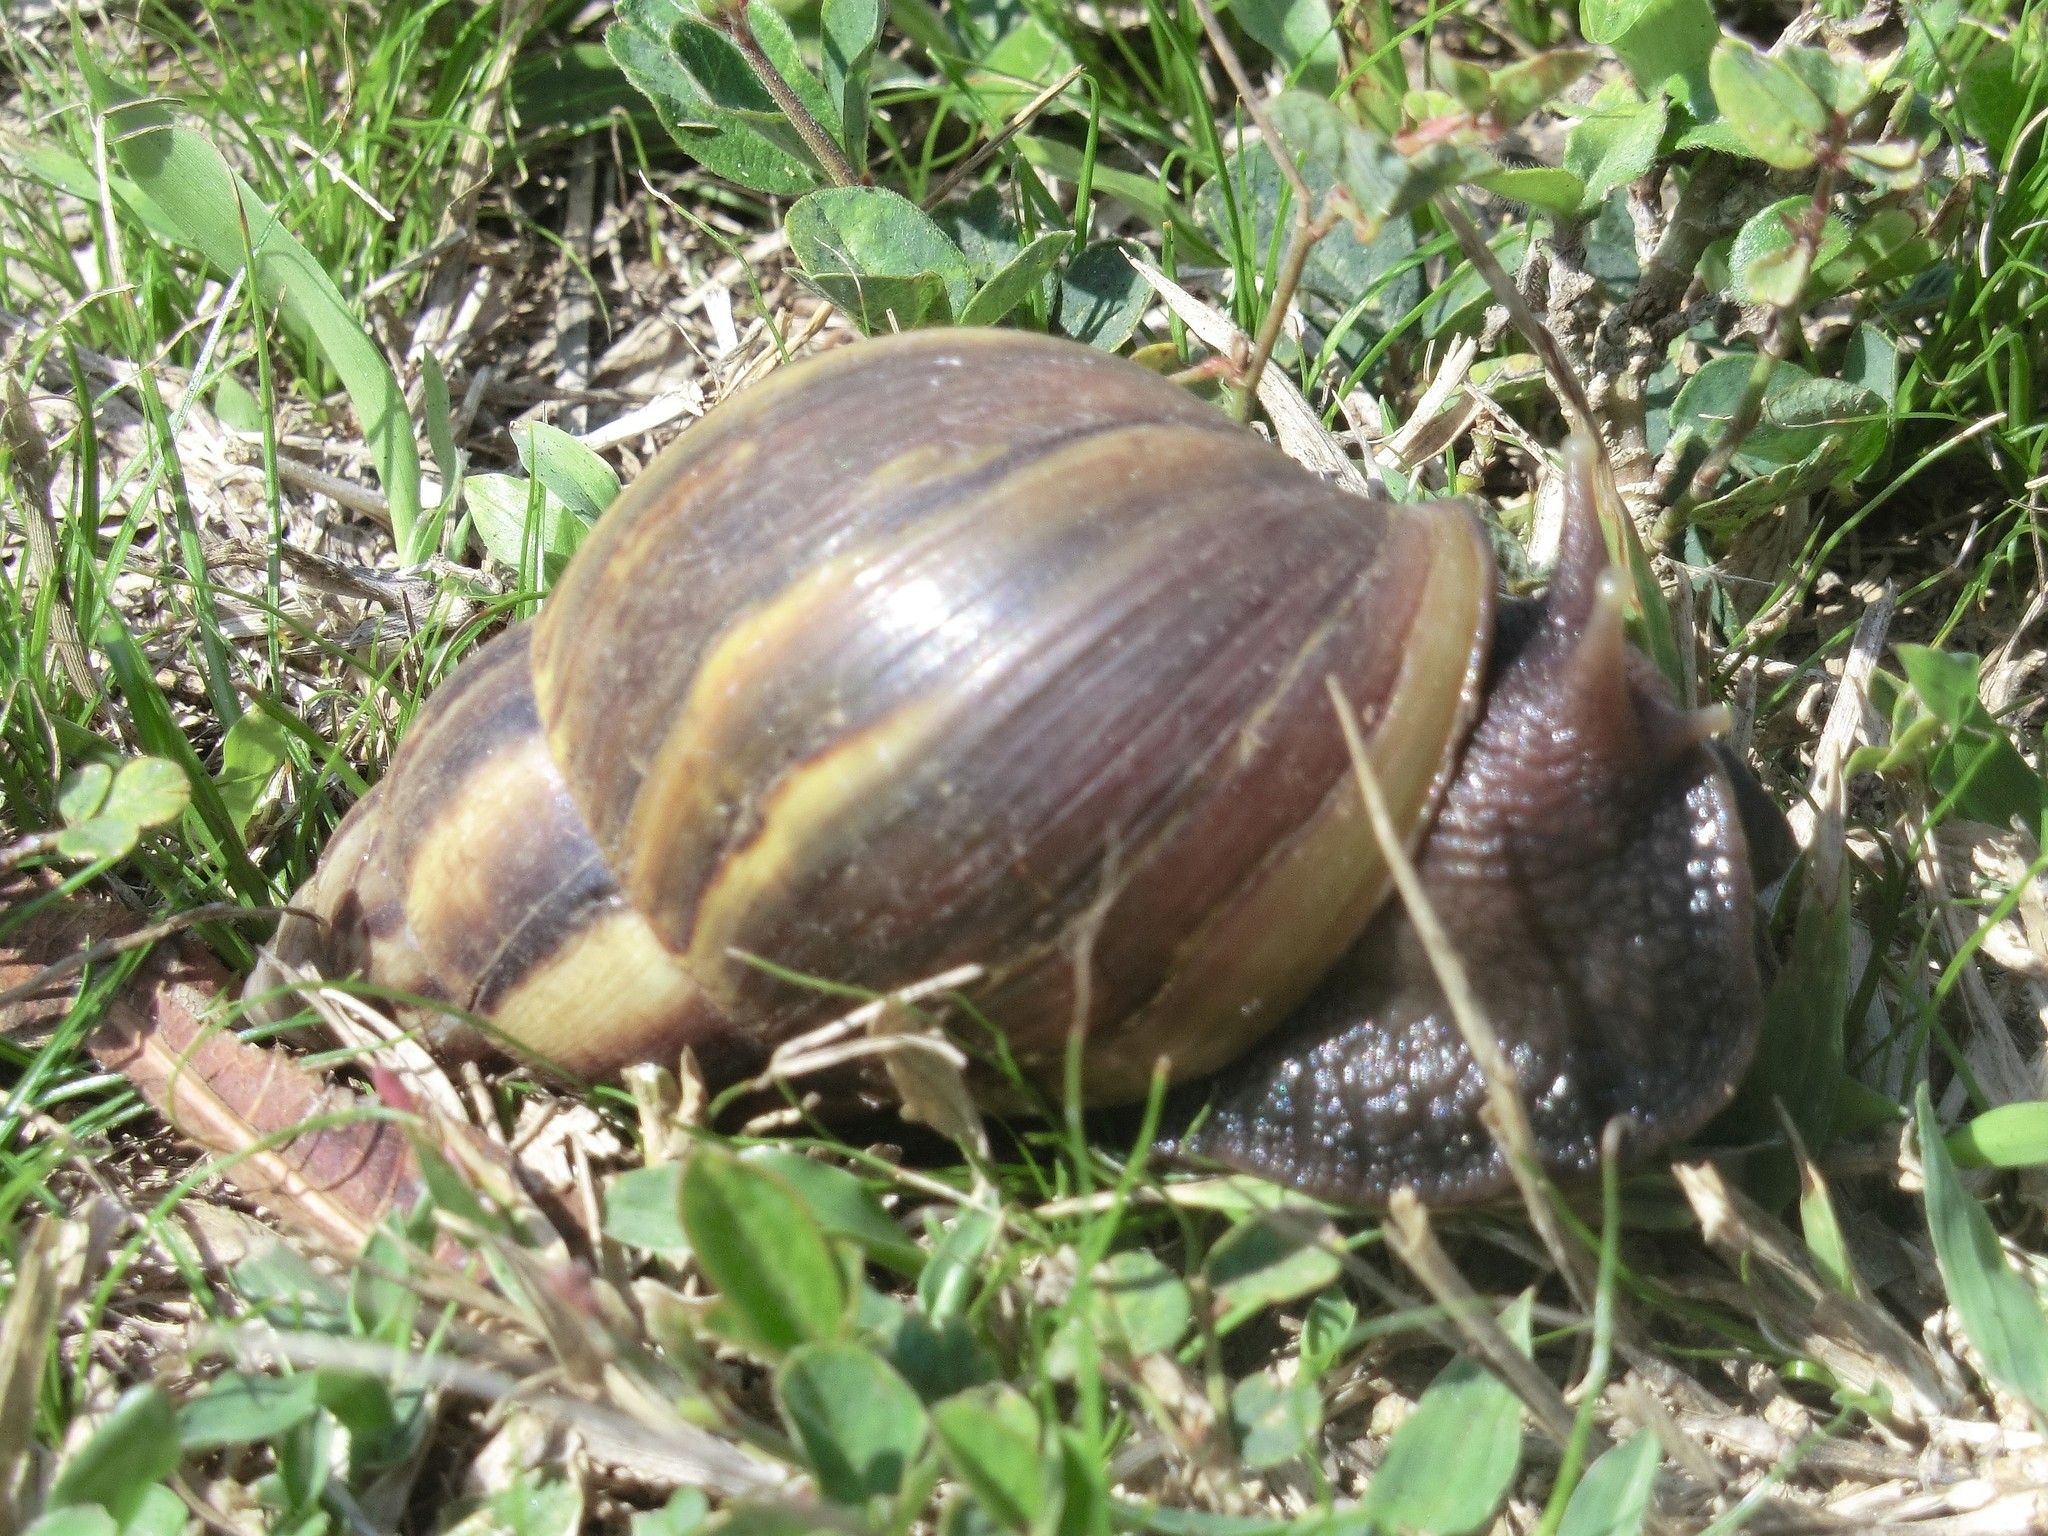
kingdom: Animalia
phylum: Mollusca
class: Gastropoda
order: Stylommatophora
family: Achatinidae
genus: Lissachatina
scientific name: Lissachatina fulica
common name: Giant african snail
